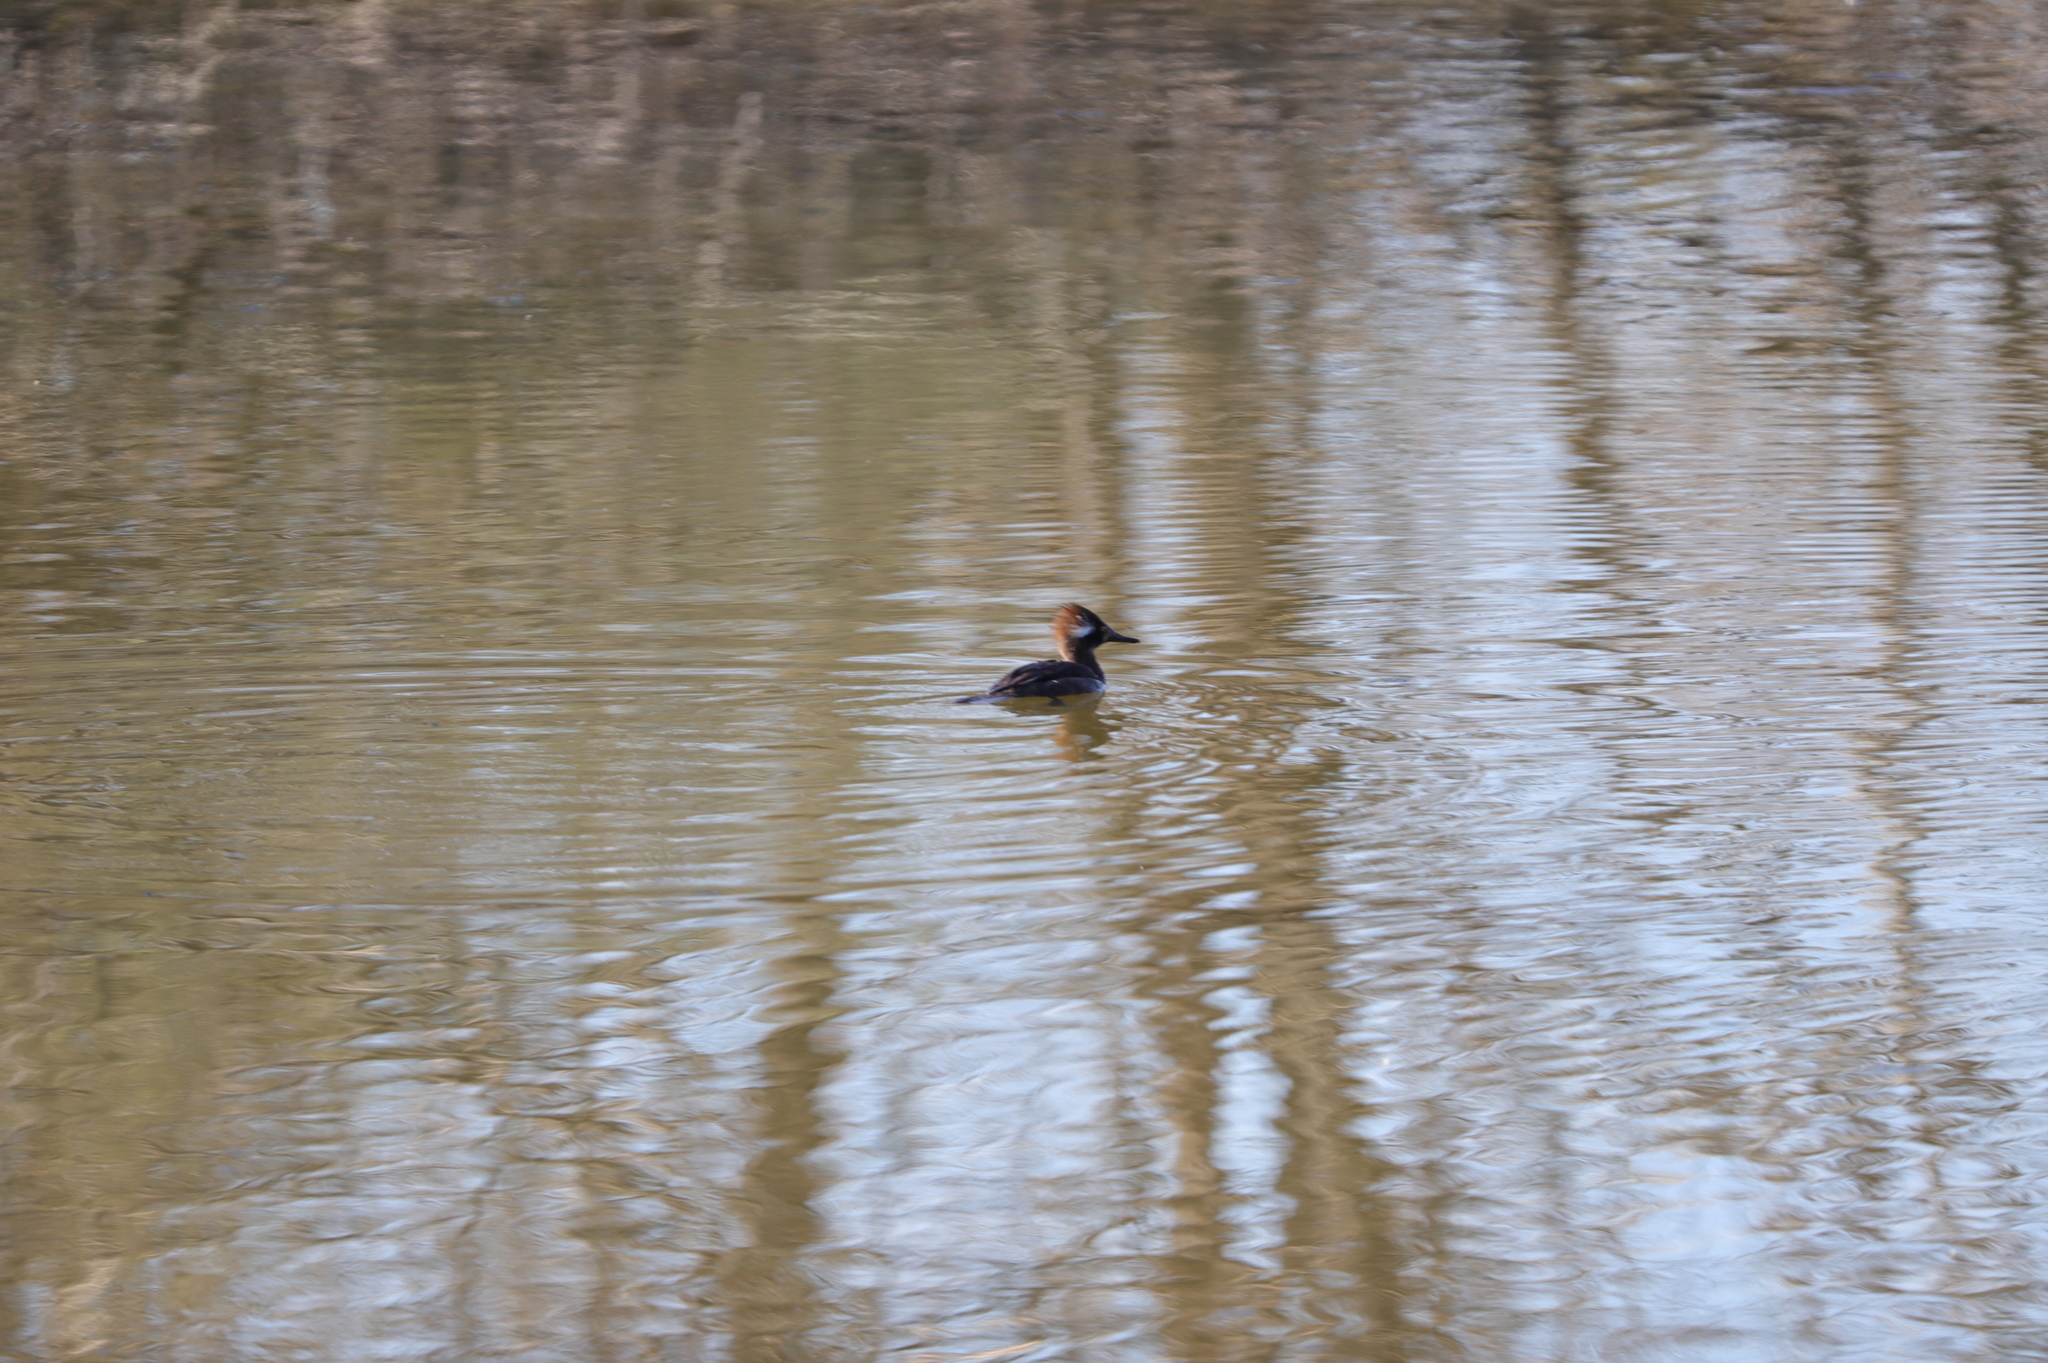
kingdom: Animalia
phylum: Chordata
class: Aves
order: Anseriformes
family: Anatidae
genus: Lophodytes
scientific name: Lophodytes cucullatus
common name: Hooded merganser
